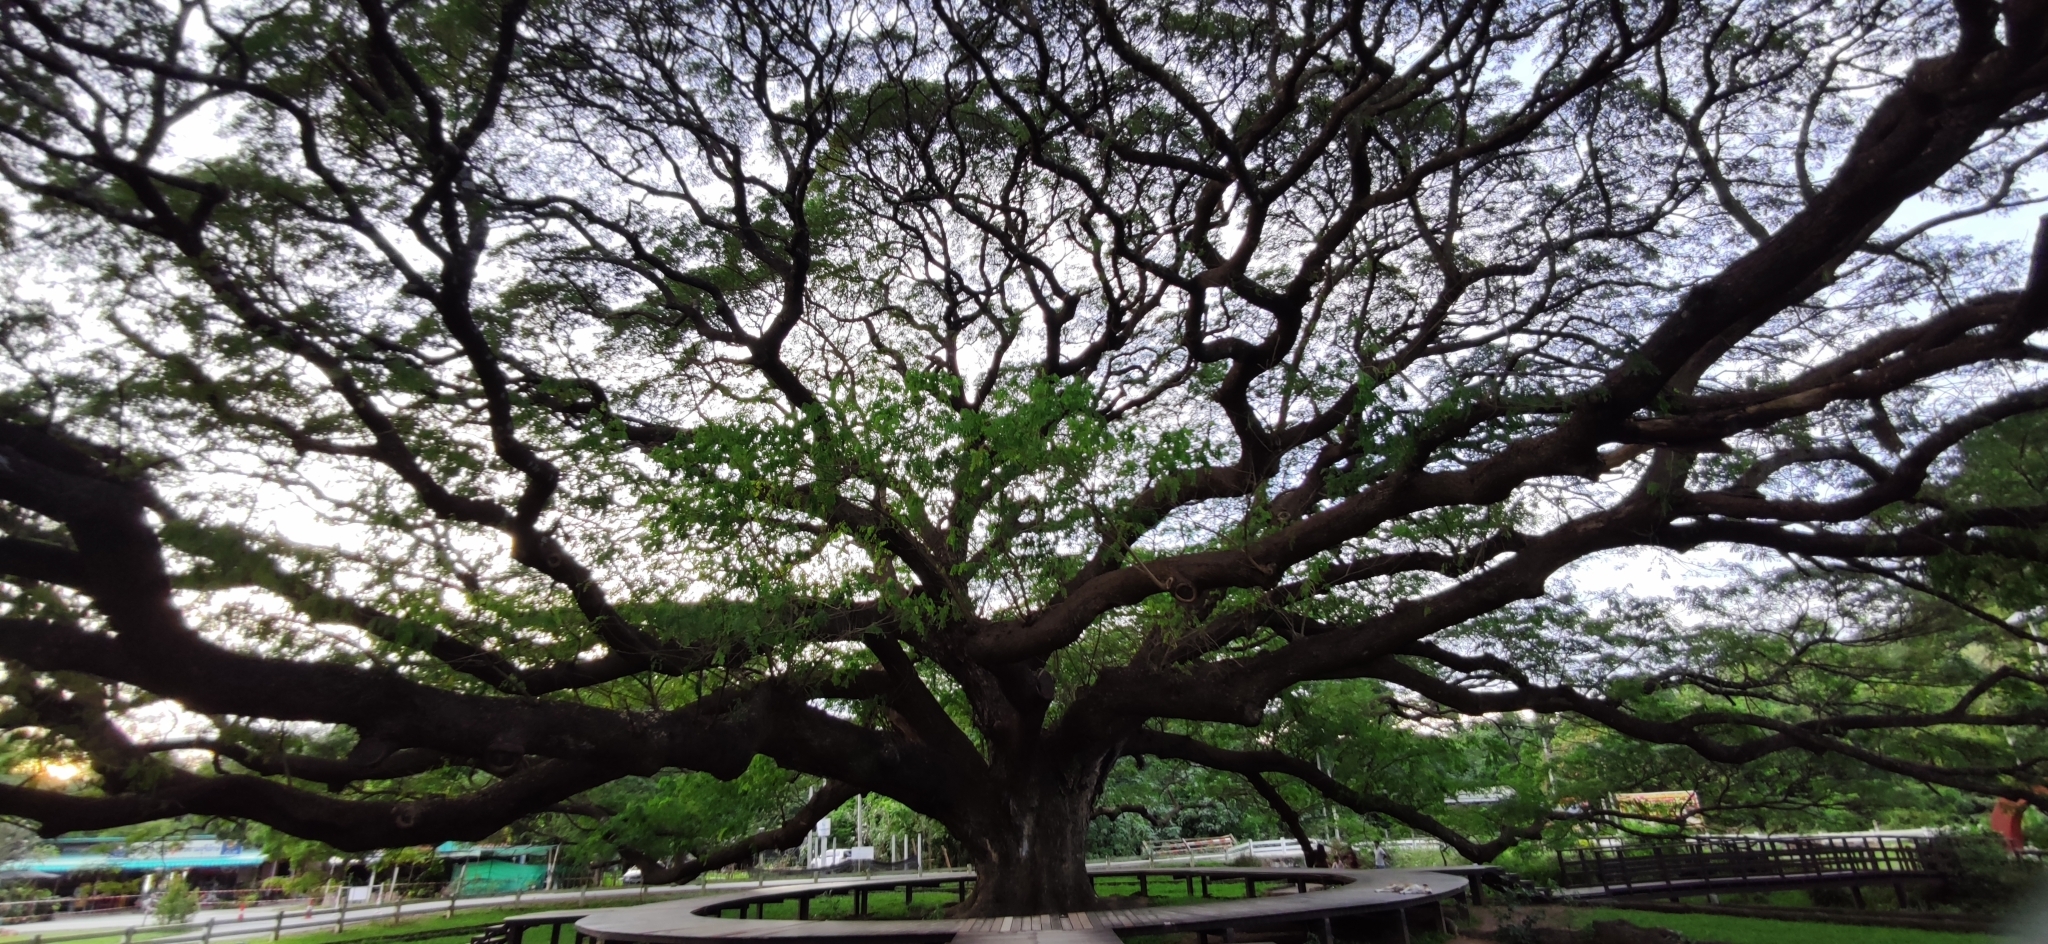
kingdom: Plantae
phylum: Tracheophyta
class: Magnoliopsida
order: Fabales
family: Fabaceae
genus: Samanea
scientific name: Samanea saman
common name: Raintree
